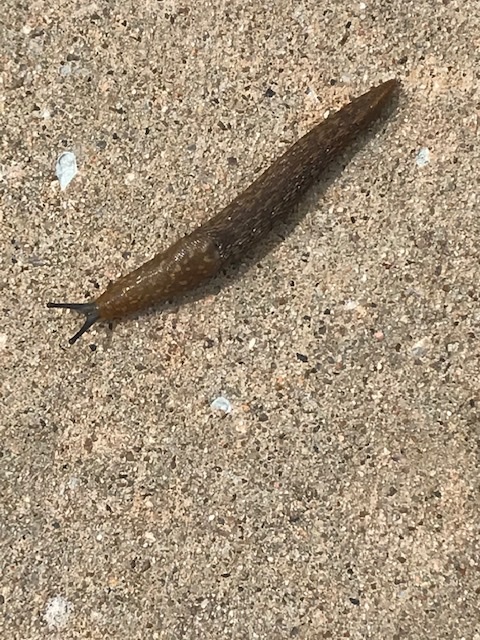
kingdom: Animalia
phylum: Mollusca
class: Gastropoda
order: Stylommatophora
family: Limacidae
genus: Limacus
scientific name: Limacus flavus
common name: Yellow gardenslug
